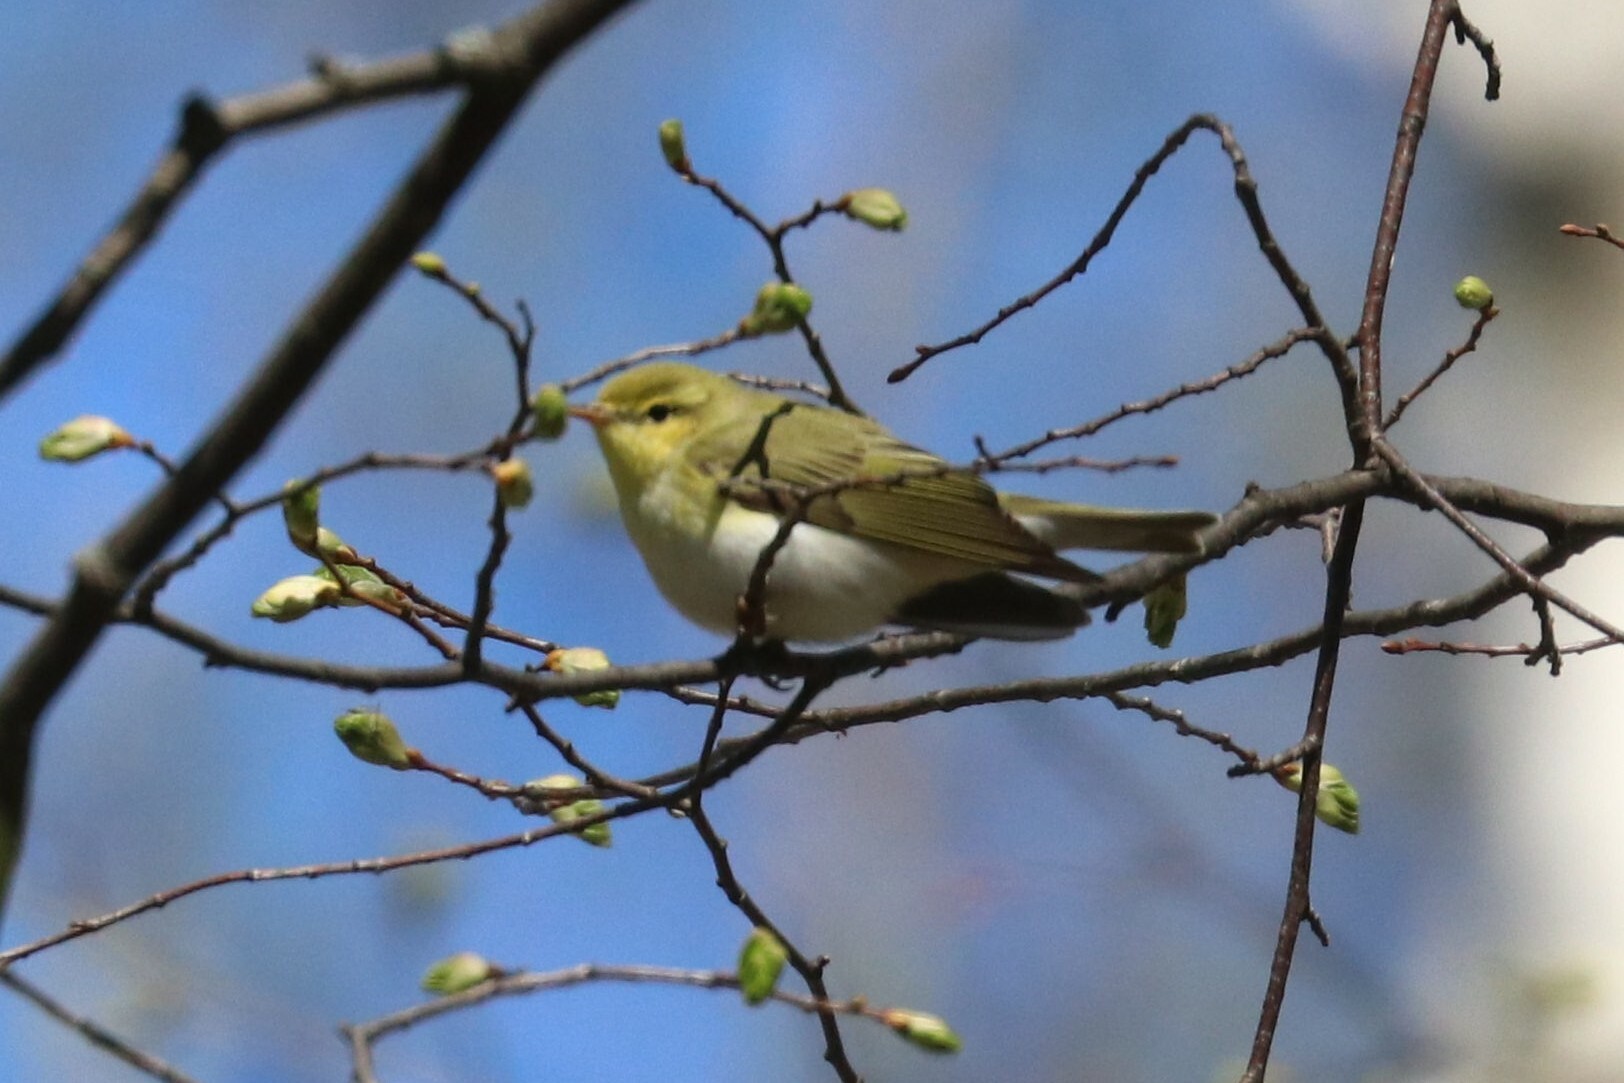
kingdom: Animalia
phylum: Chordata
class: Aves
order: Passeriformes
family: Phylloscopidae
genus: Phylloscopus
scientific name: Phylloscopus sibillatrix
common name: Wood warbler
